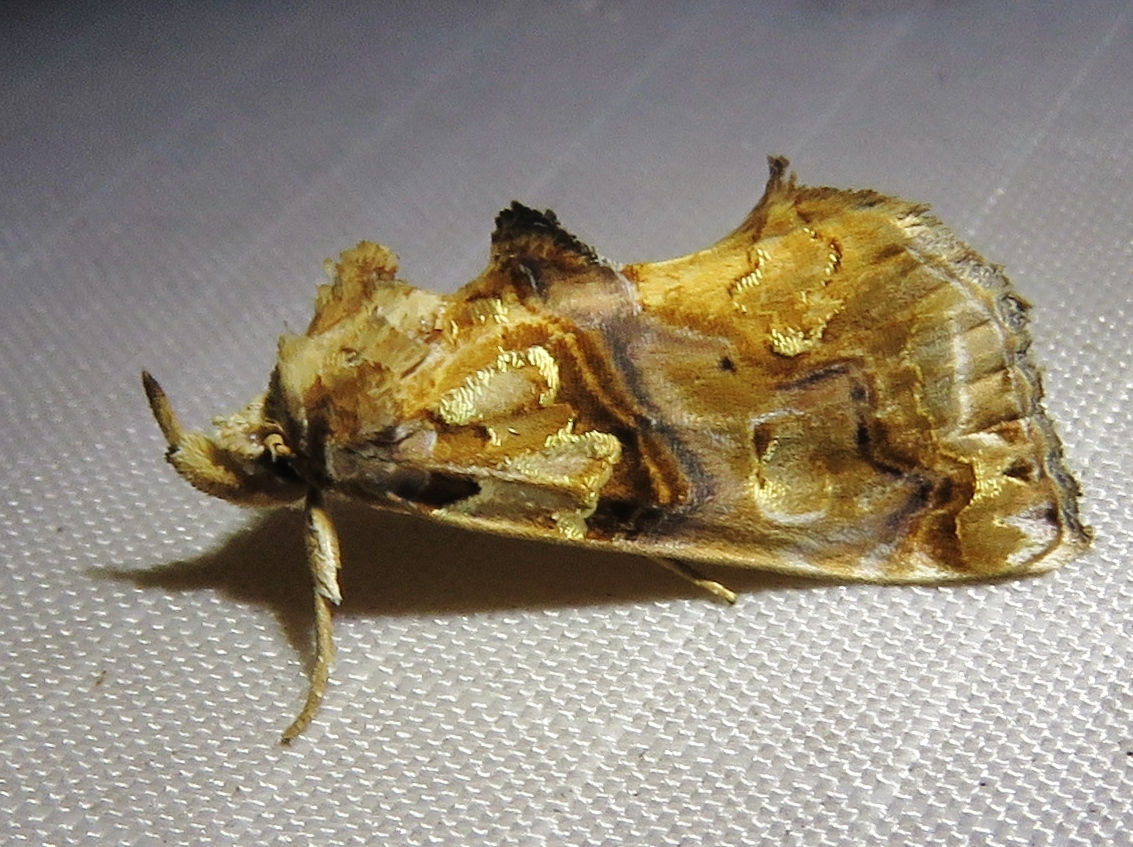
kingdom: Animalia
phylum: Arthropoda
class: Insecta
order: Lepidoptera
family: Erebidae
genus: Plusiodonta
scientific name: Plusiodonta compressipalpis
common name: Moonseed moth
